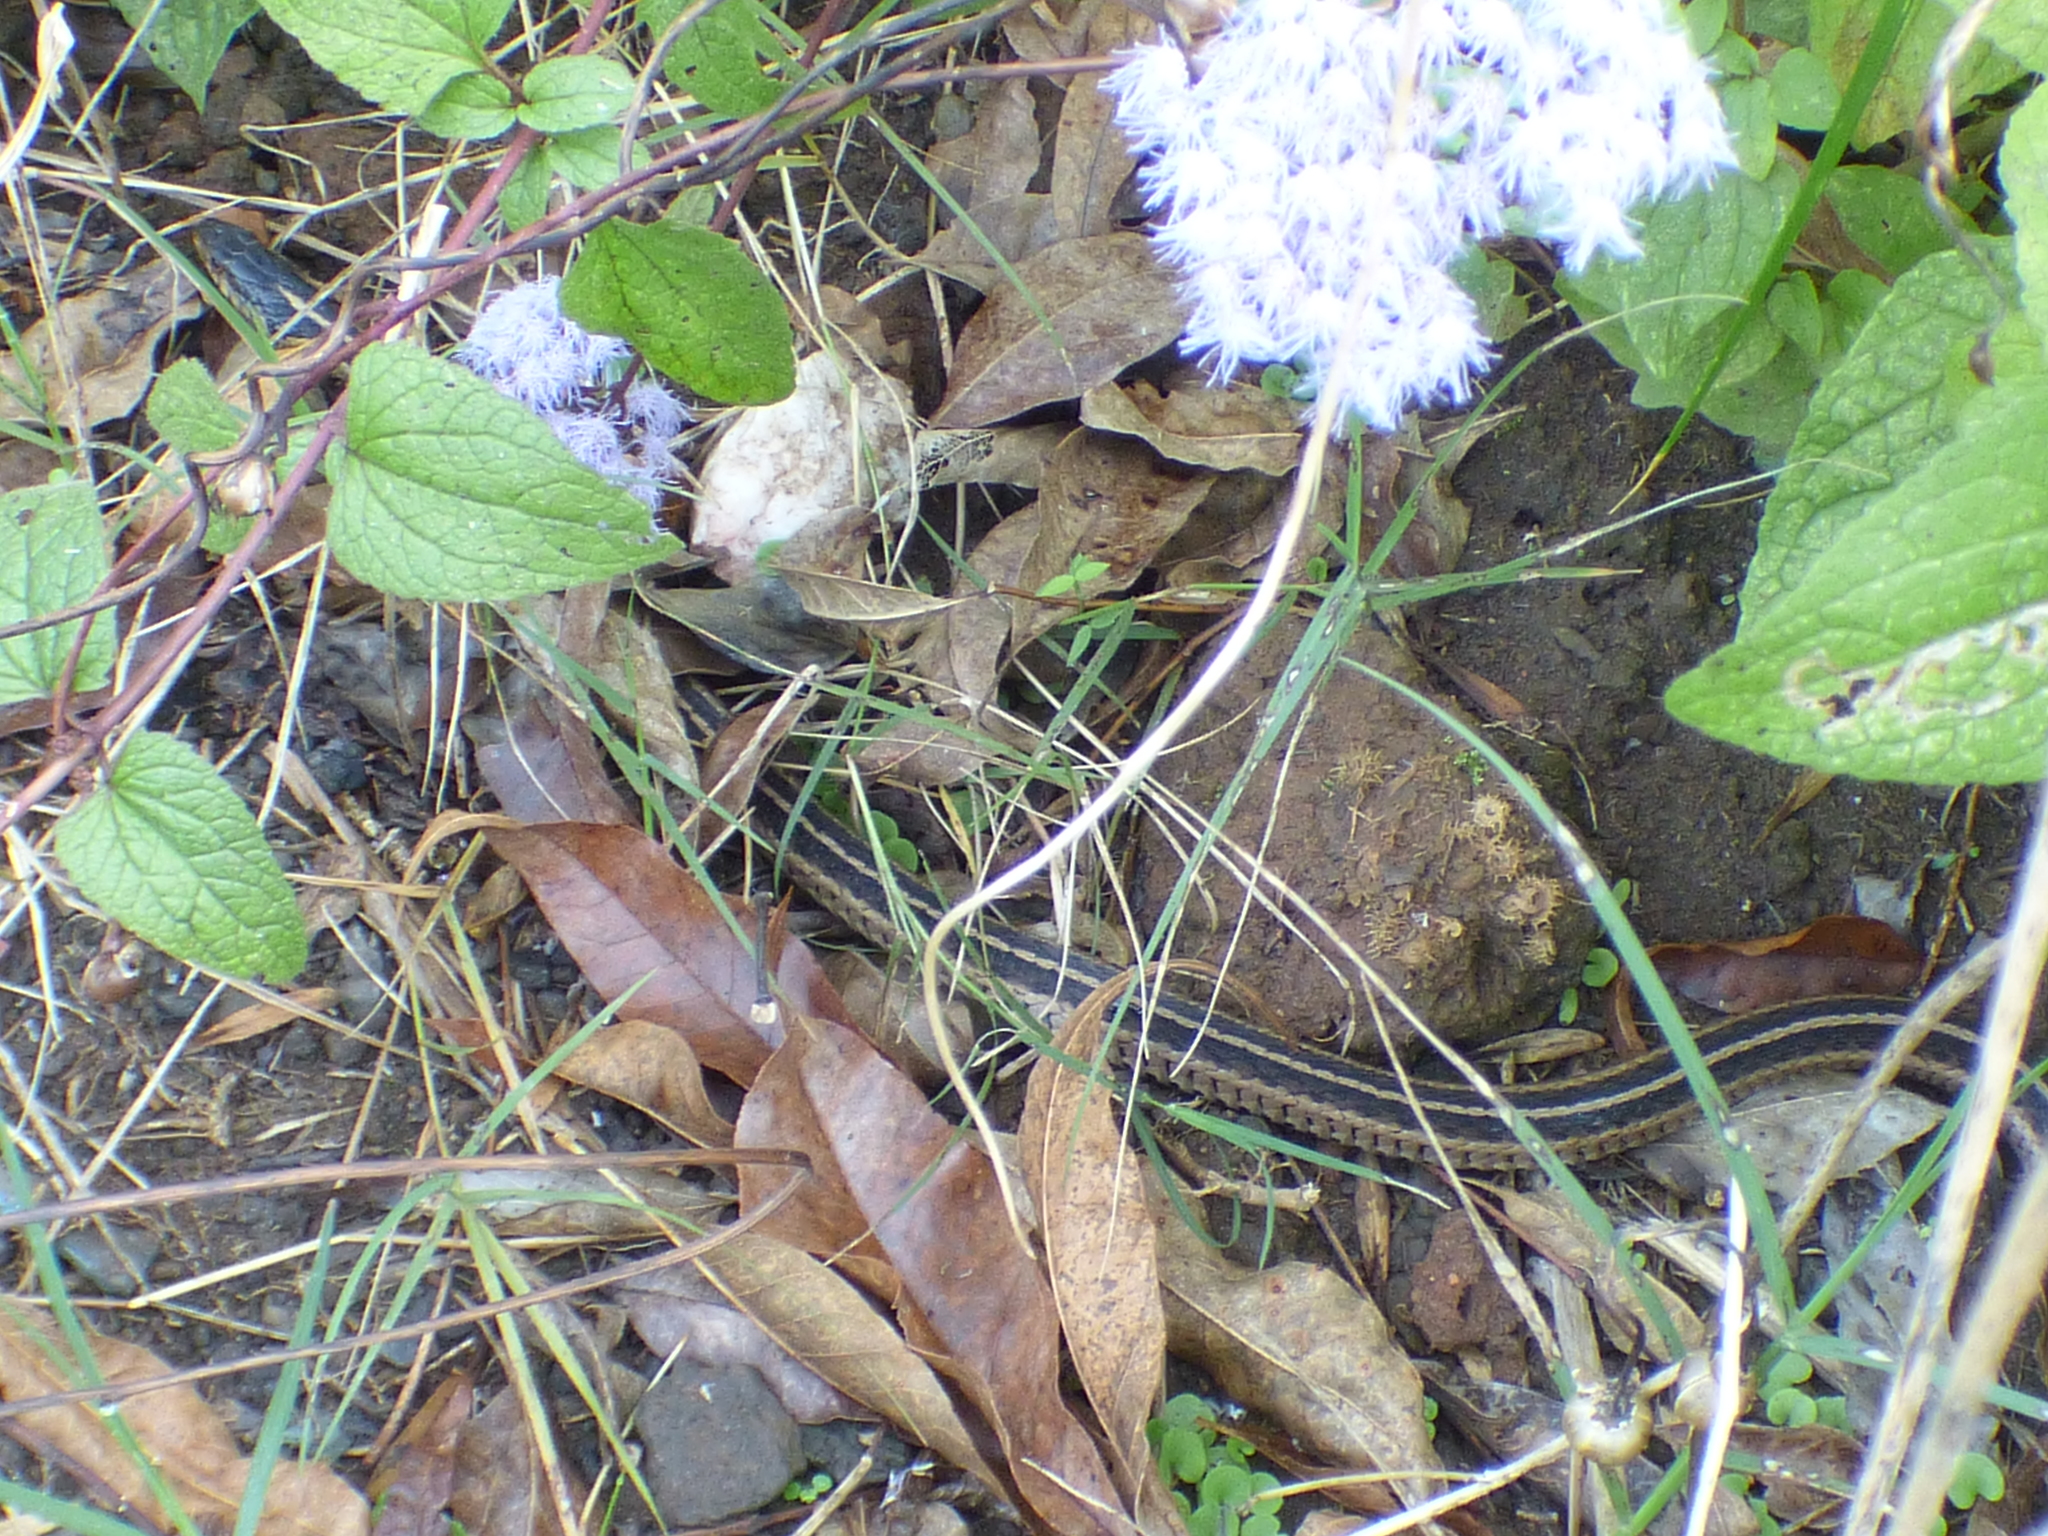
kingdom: Animalia
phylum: Chordata
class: Squamata
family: Colubridae
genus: Thamnophis
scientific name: Thamnophis sirtalis
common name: Common garter snake
